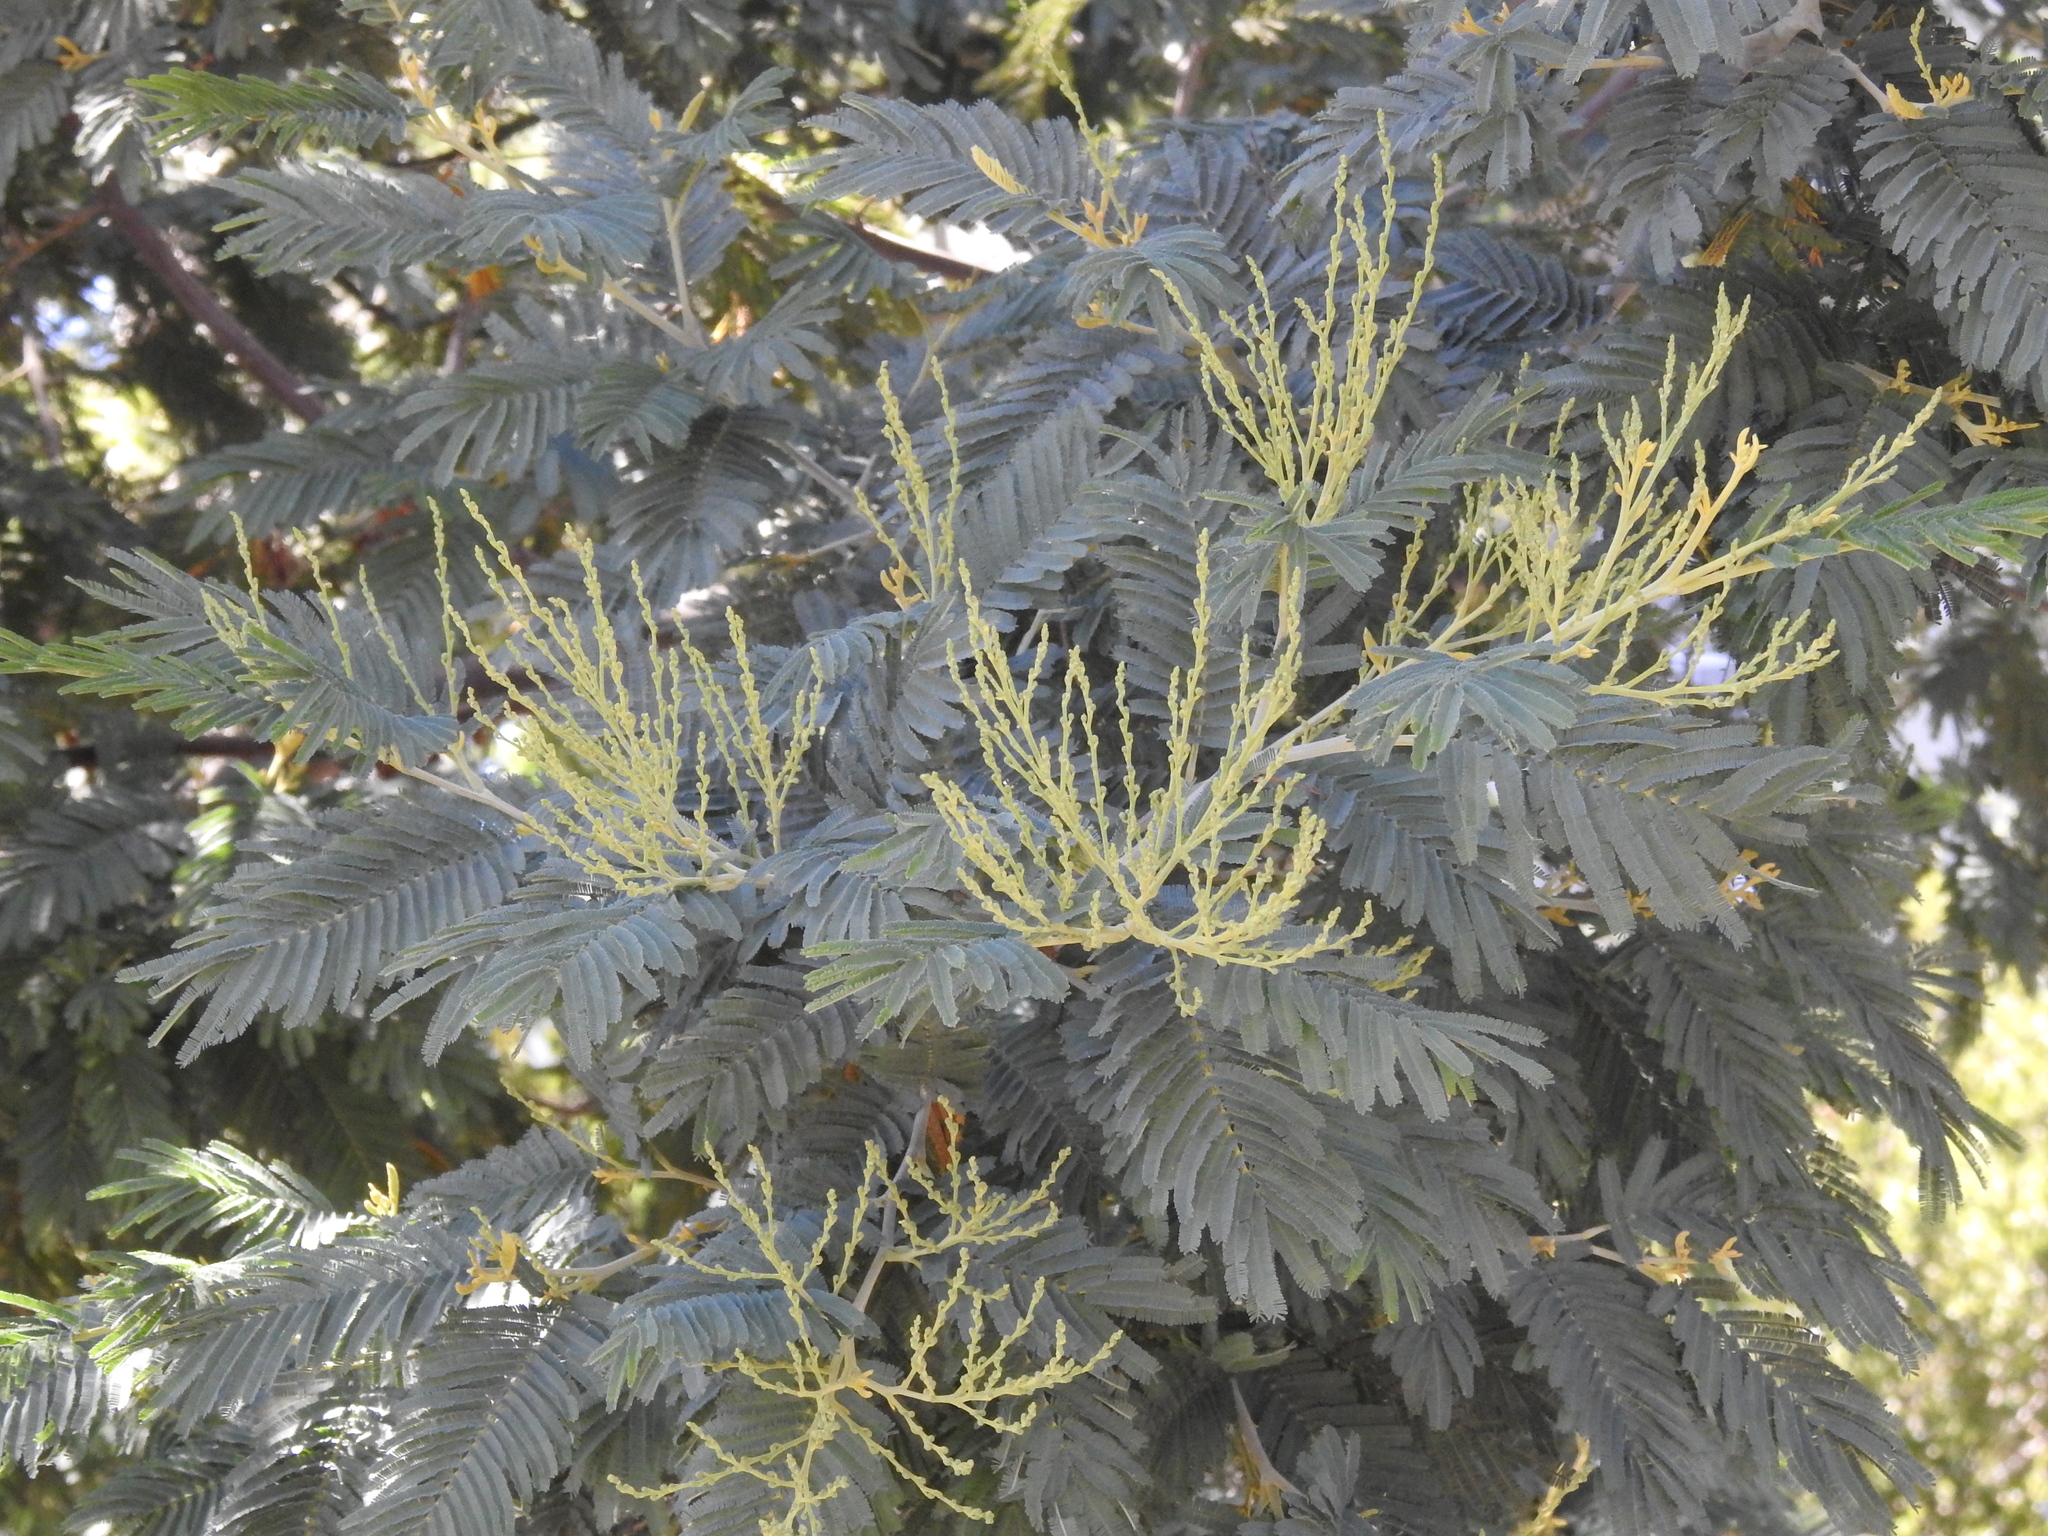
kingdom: Plantae
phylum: Tracheophyta
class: Magnoliopsida
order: Fabales
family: Fabaceae
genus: Acacia
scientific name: Acacia dealbata
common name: Silver wattle
